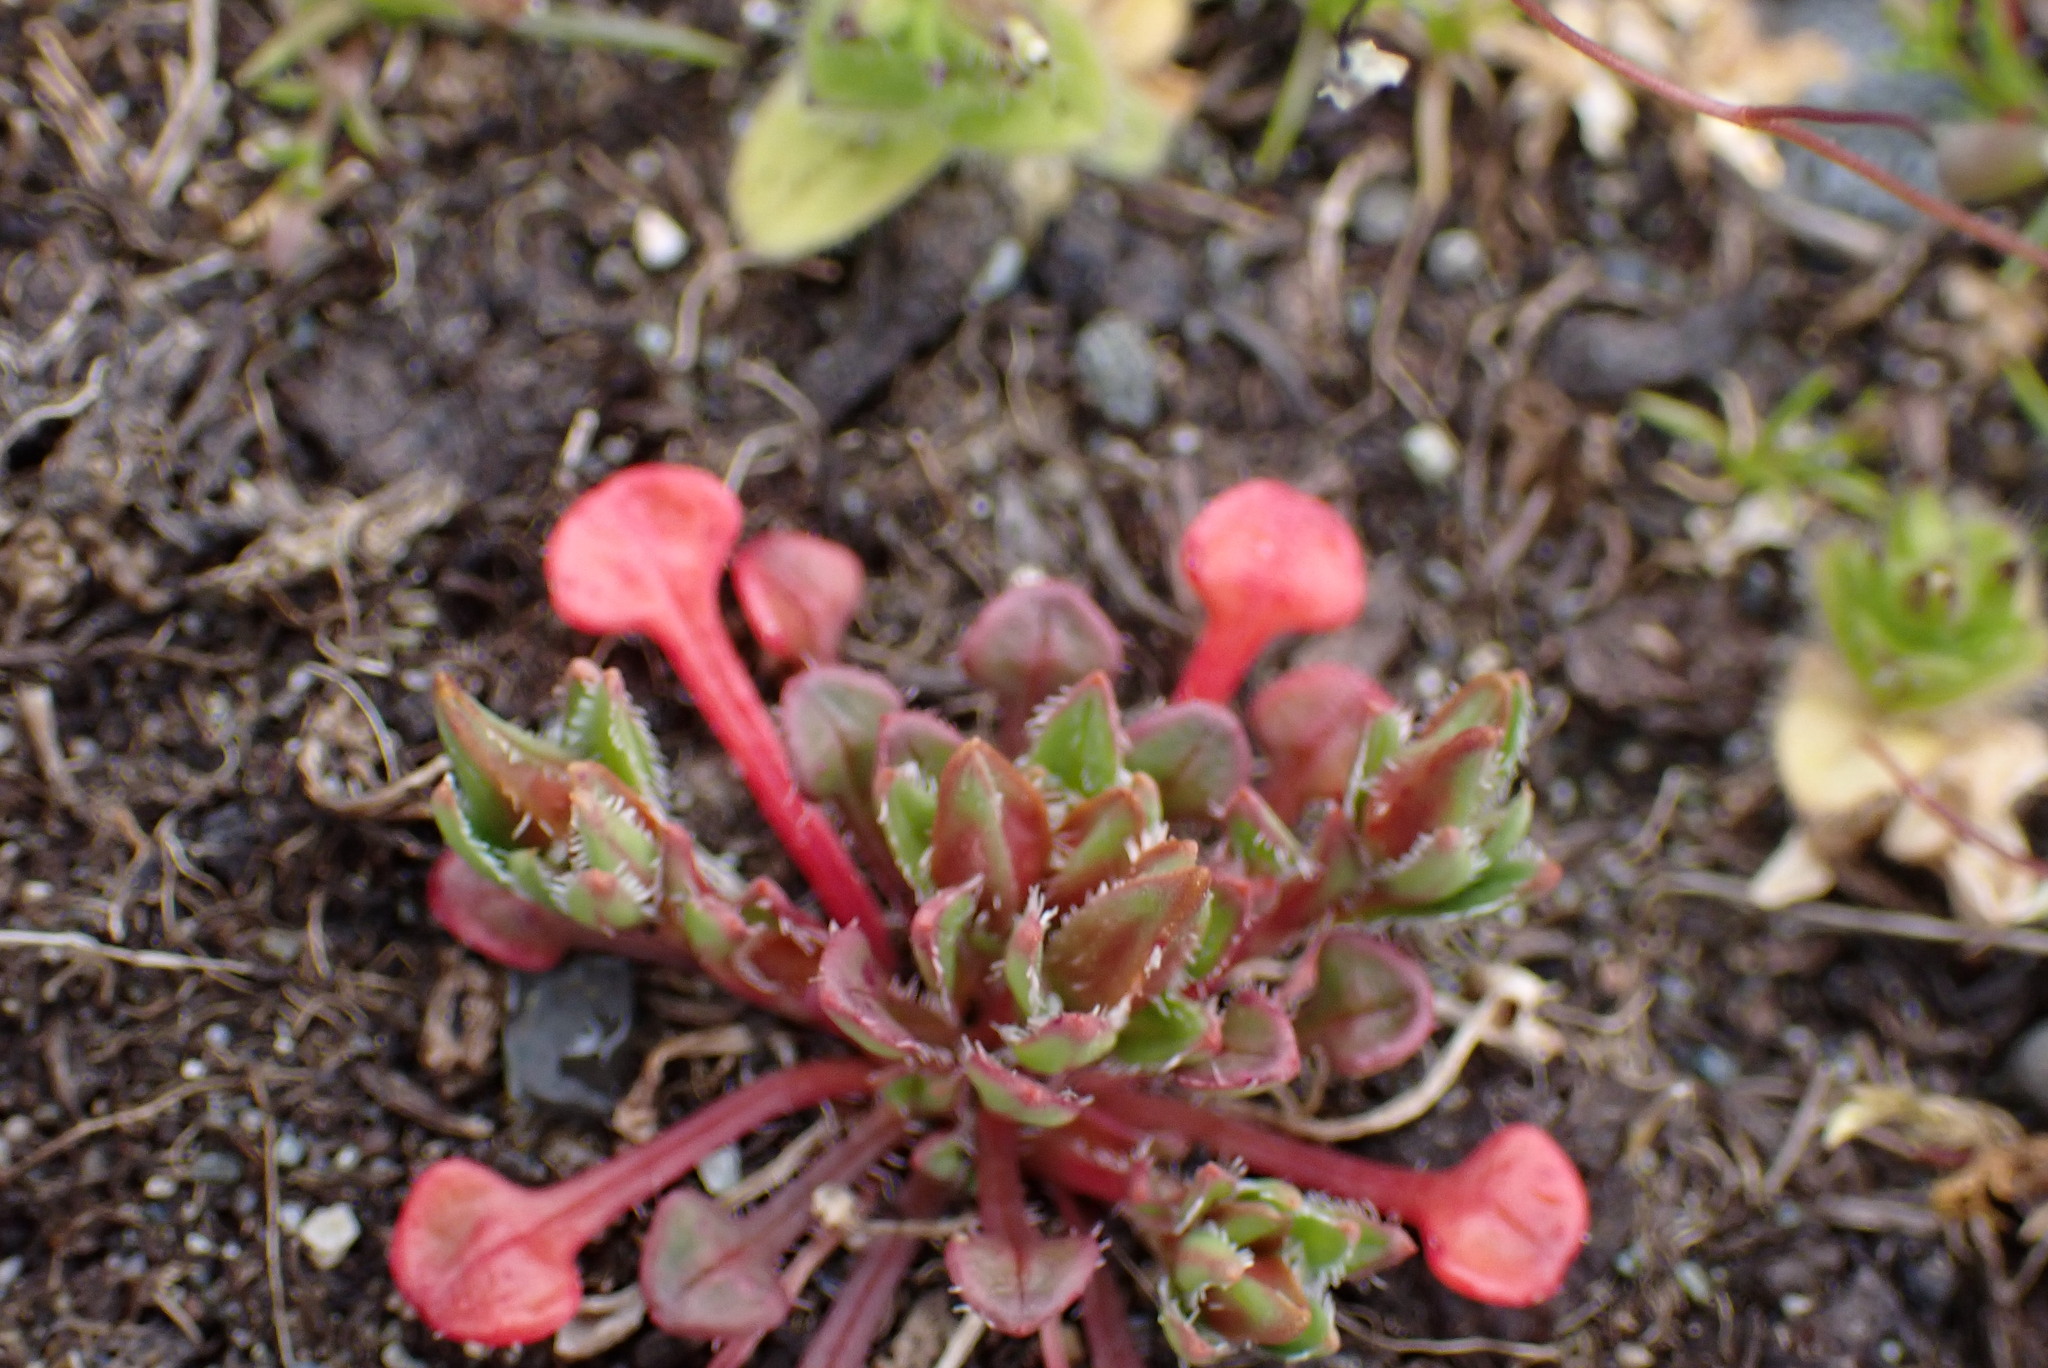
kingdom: Plantae
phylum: Tracheophyta
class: Magnoliopsida
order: Caryophyllales
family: Montiaceae
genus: Calandrinia
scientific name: Calandrinia menziesii
